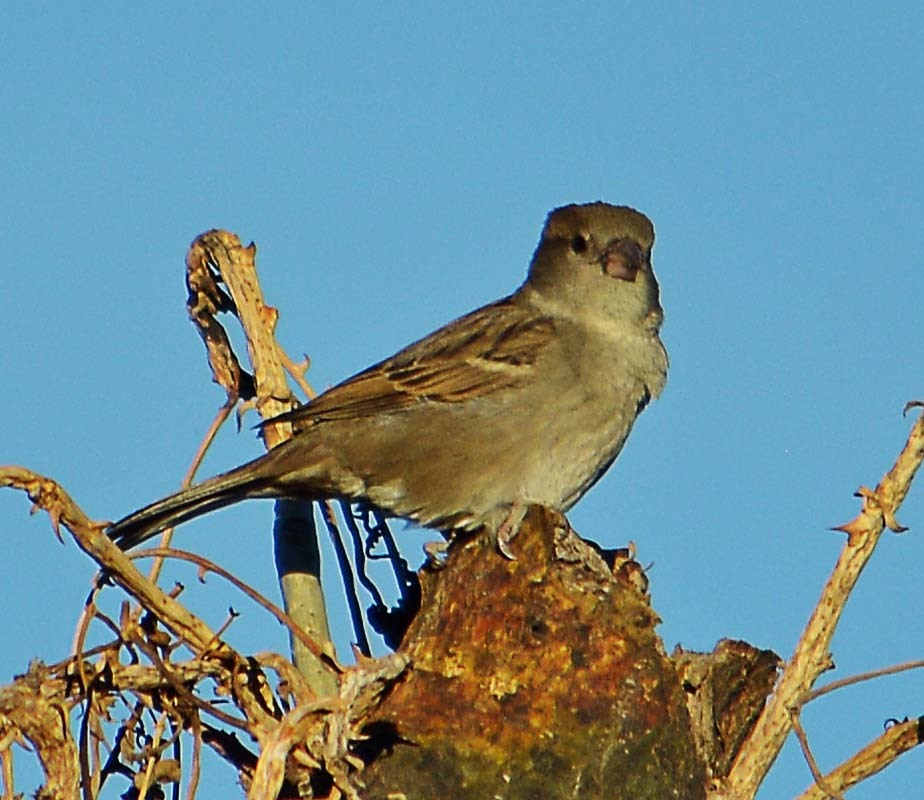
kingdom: Animalia
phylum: Chordata
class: Aves
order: Passeriformes
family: Passeridae
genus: Passer
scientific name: Passer domesticus
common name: House sparrow
